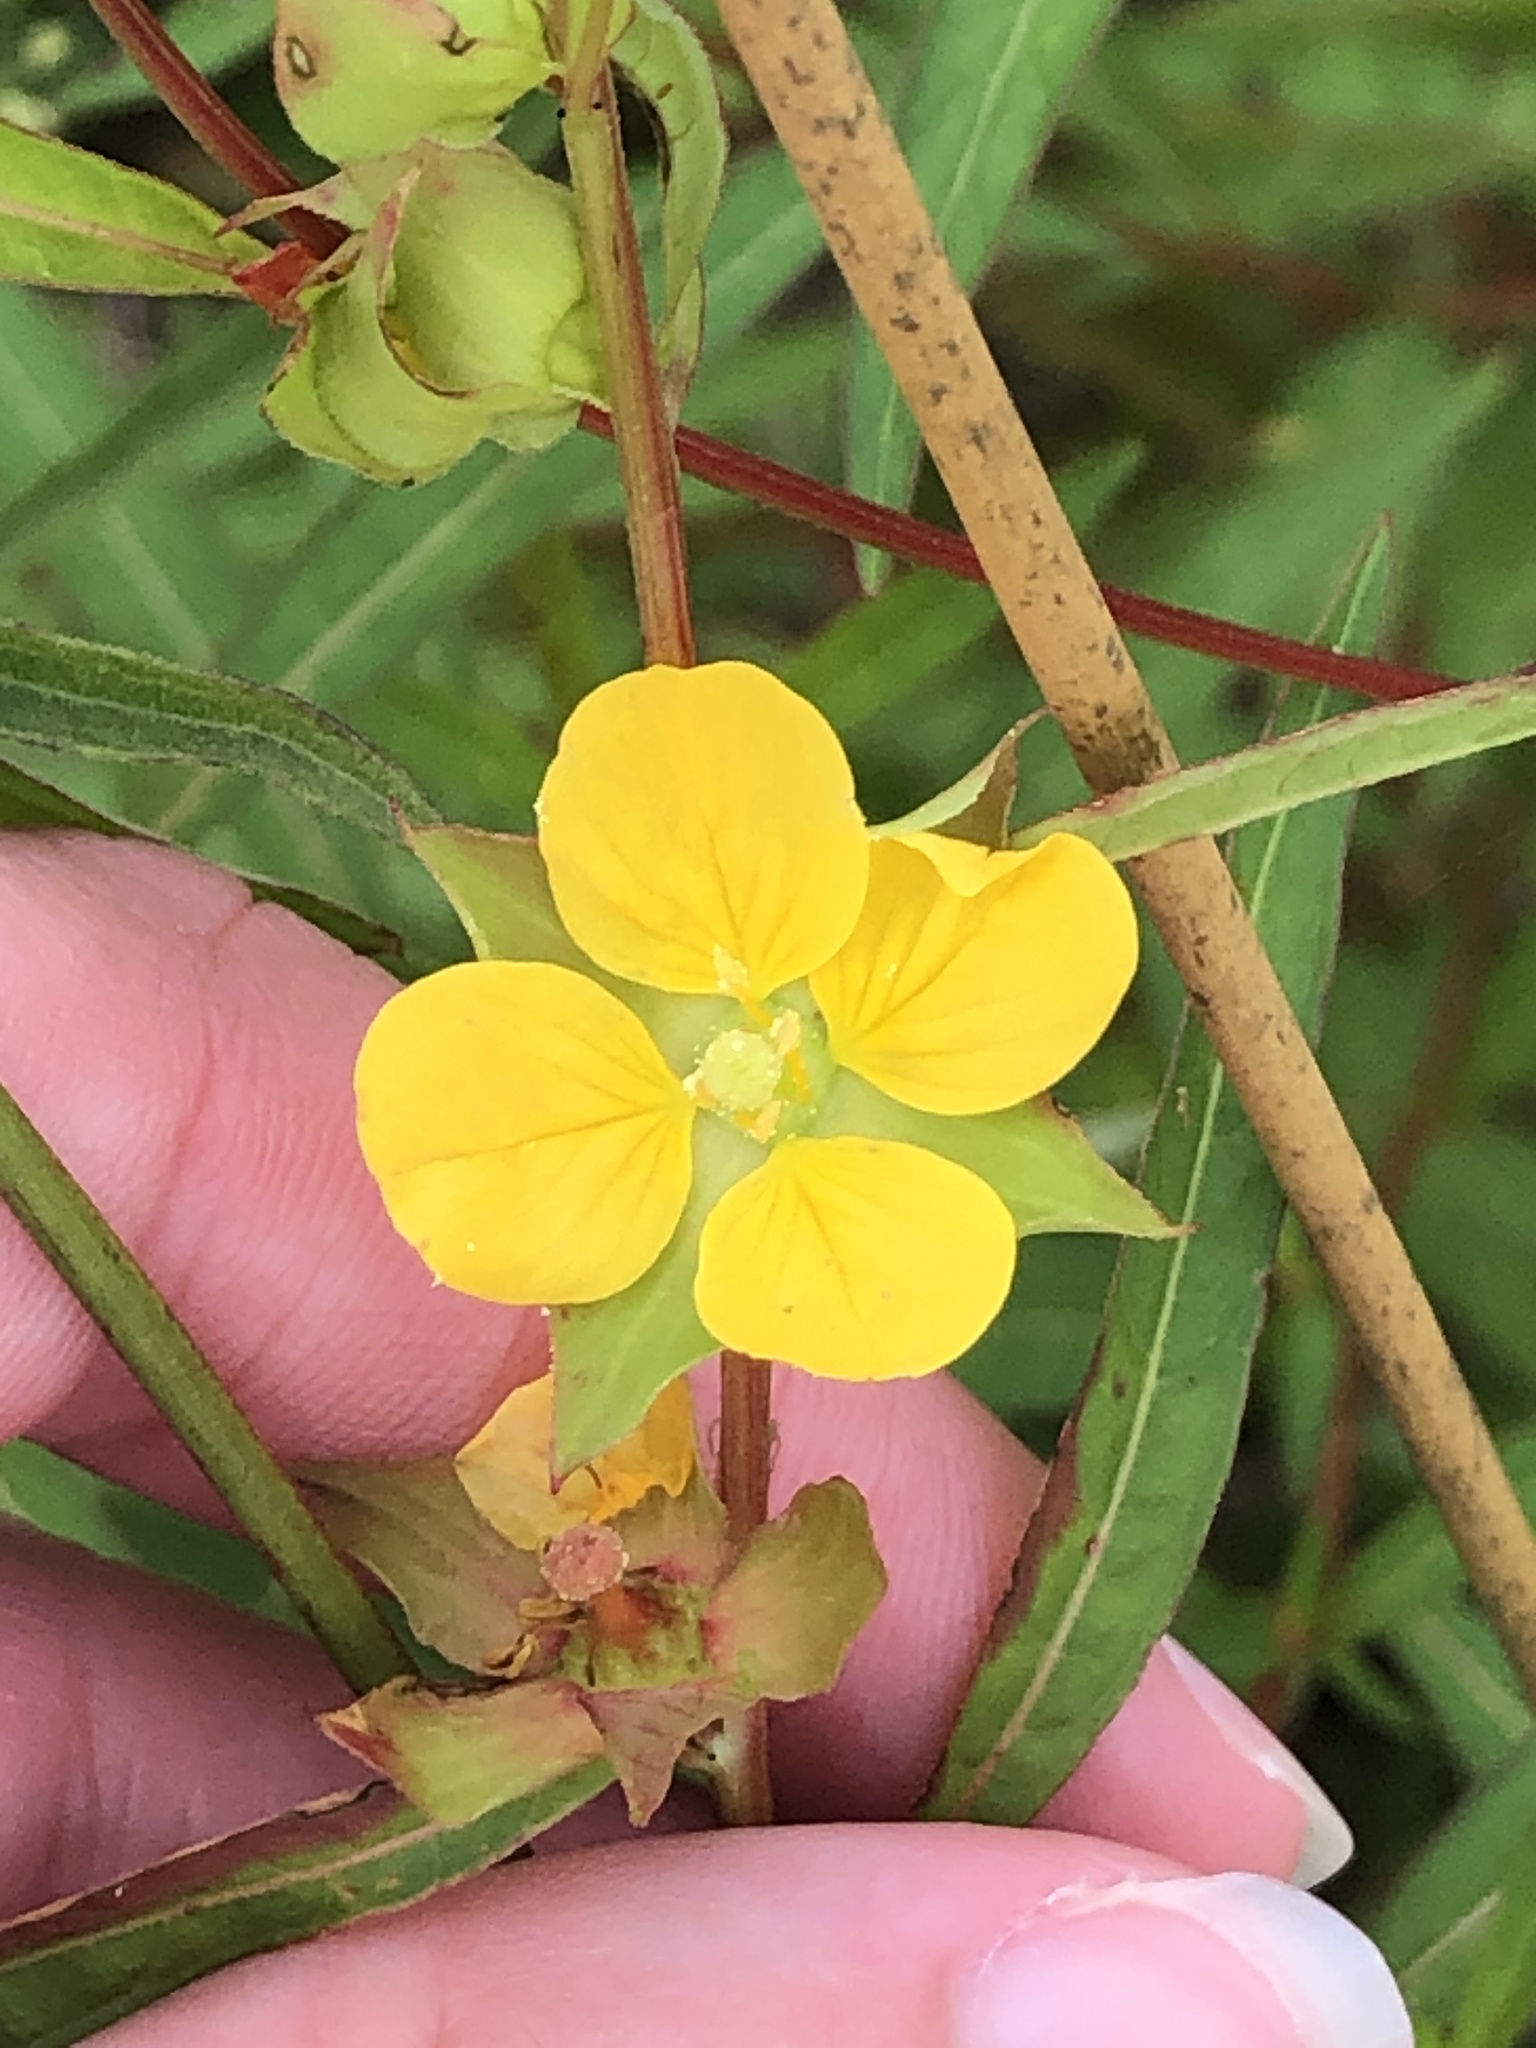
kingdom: Plantae
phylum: Tracheophyta
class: Magnoliopsida
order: Myrtales
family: Onagraceae
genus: Ludwigia
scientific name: Ludwigia alternifolia
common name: Rattlebox
